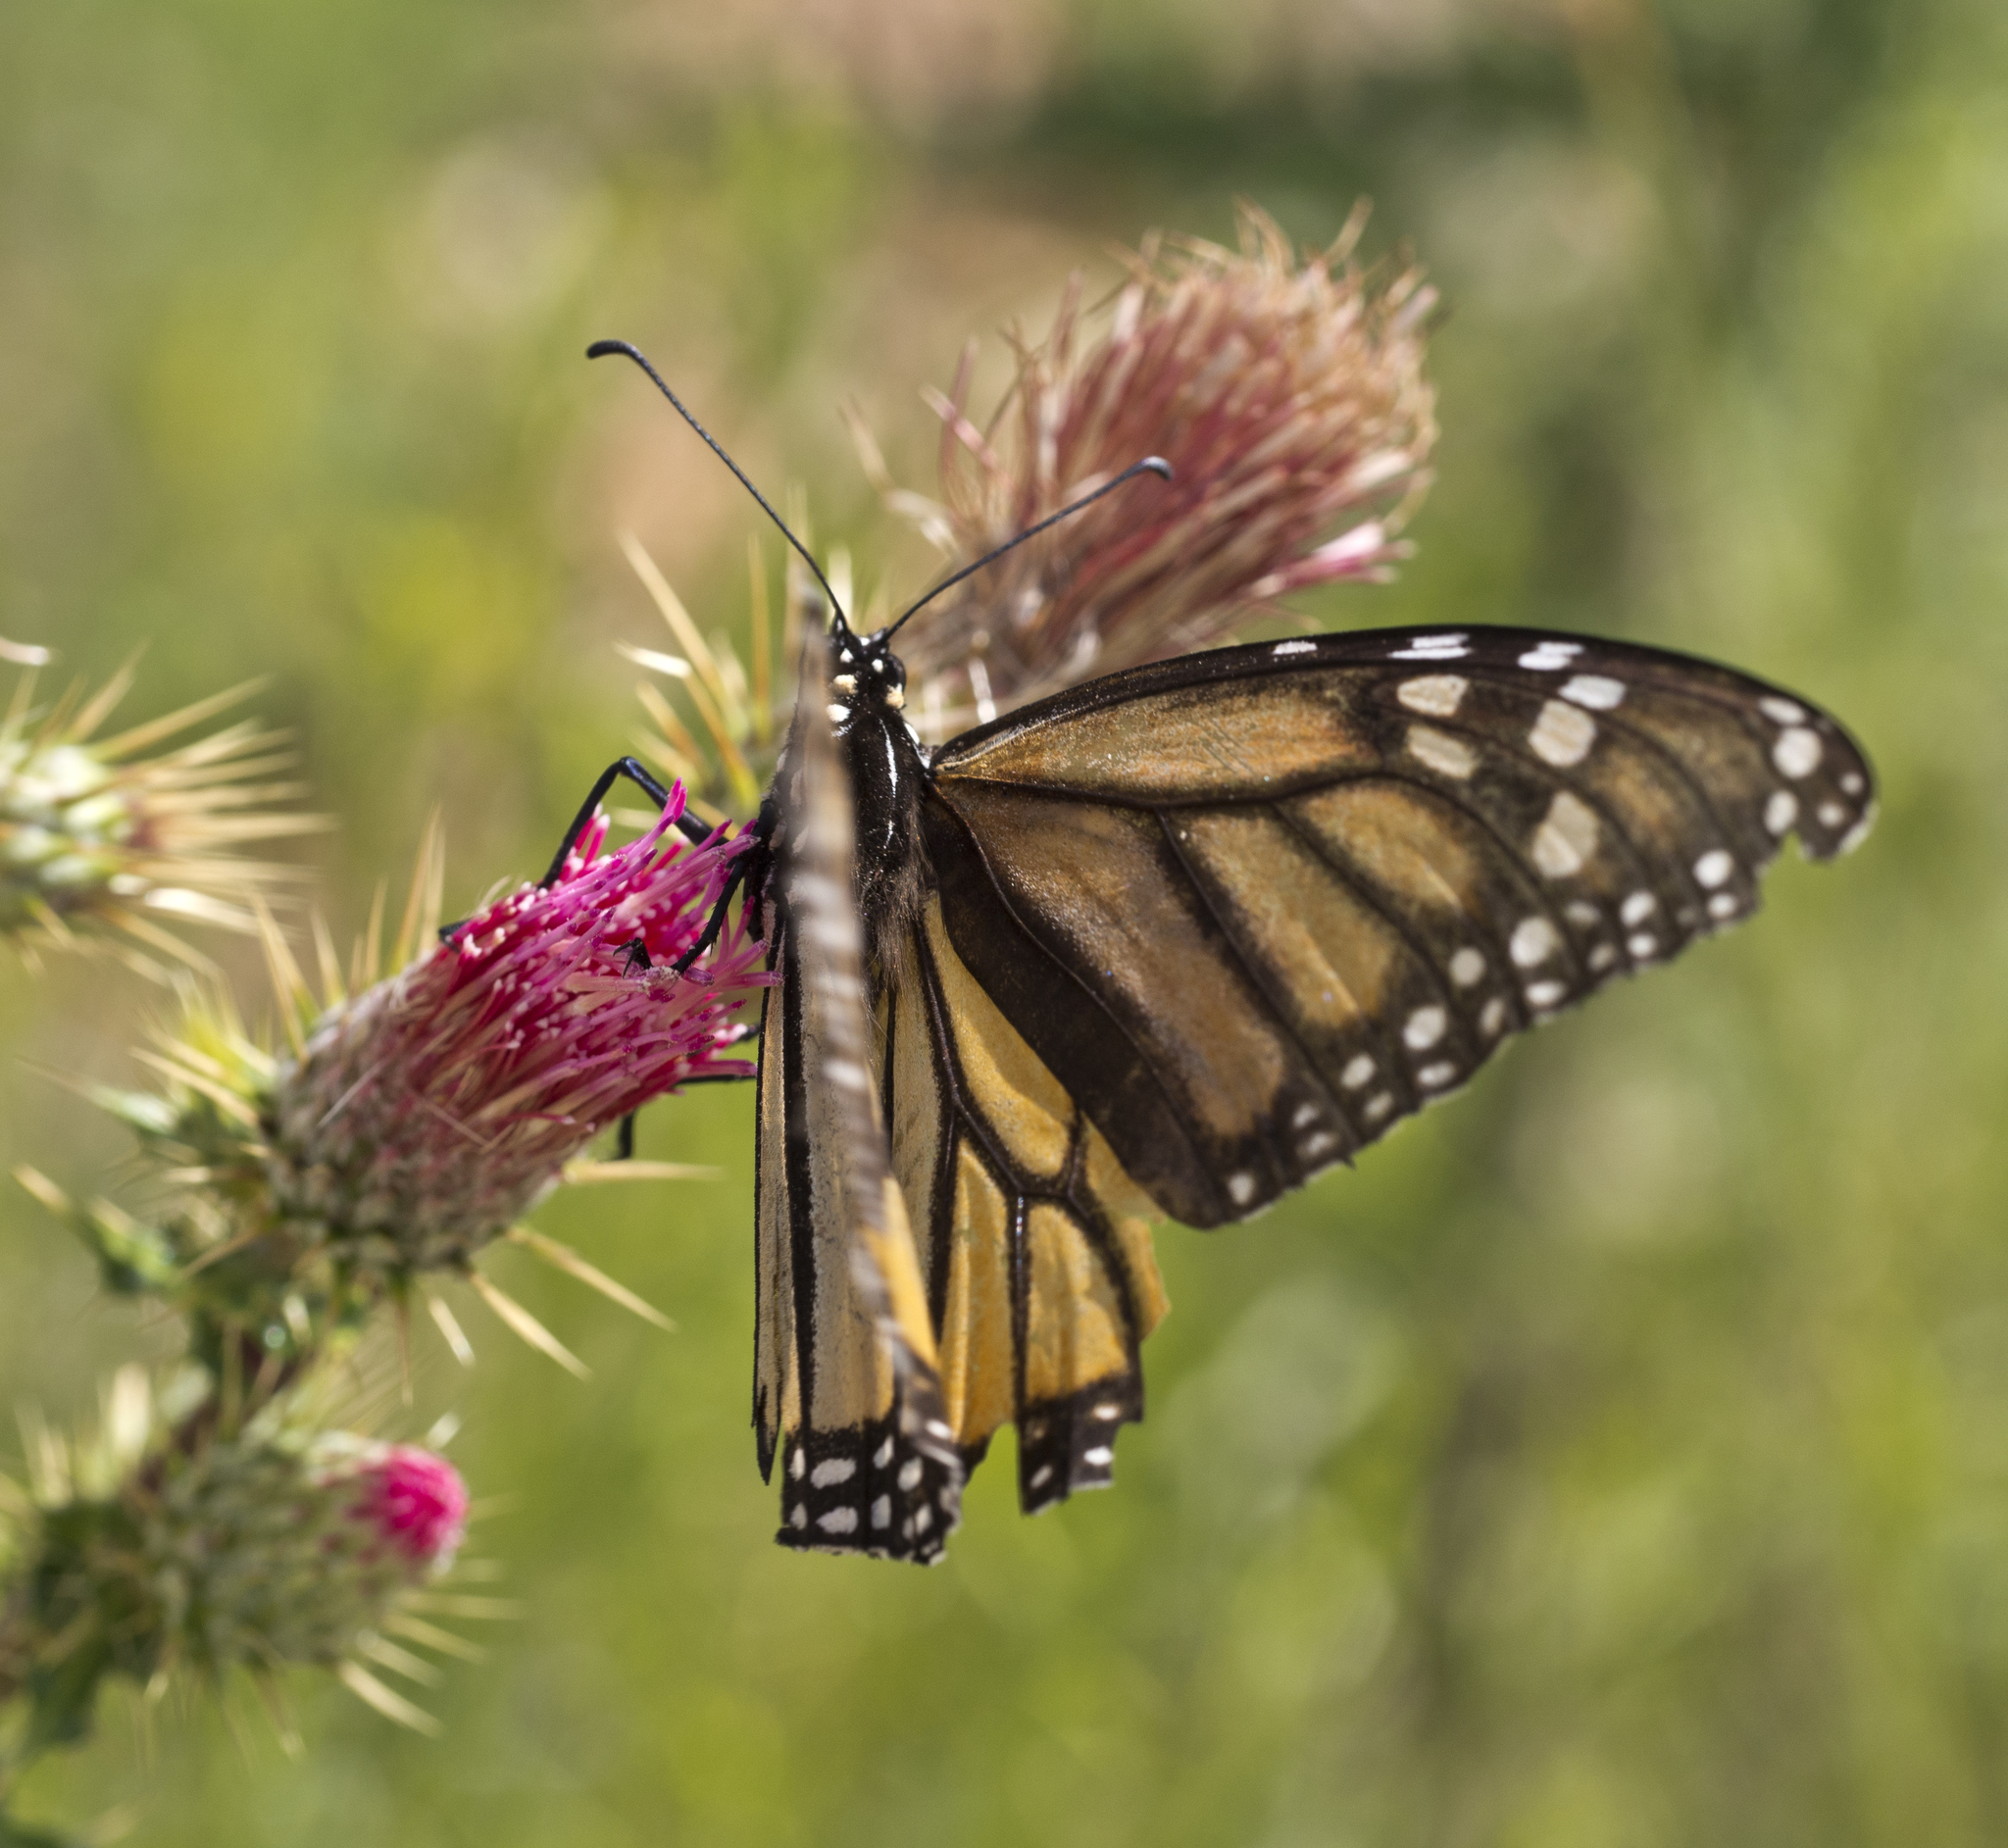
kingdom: Animalia
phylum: Arthropoda
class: Insecta
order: Lepidoptera
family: Nymphalidae
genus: Danaus
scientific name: Danaus plexippus
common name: Monarch
